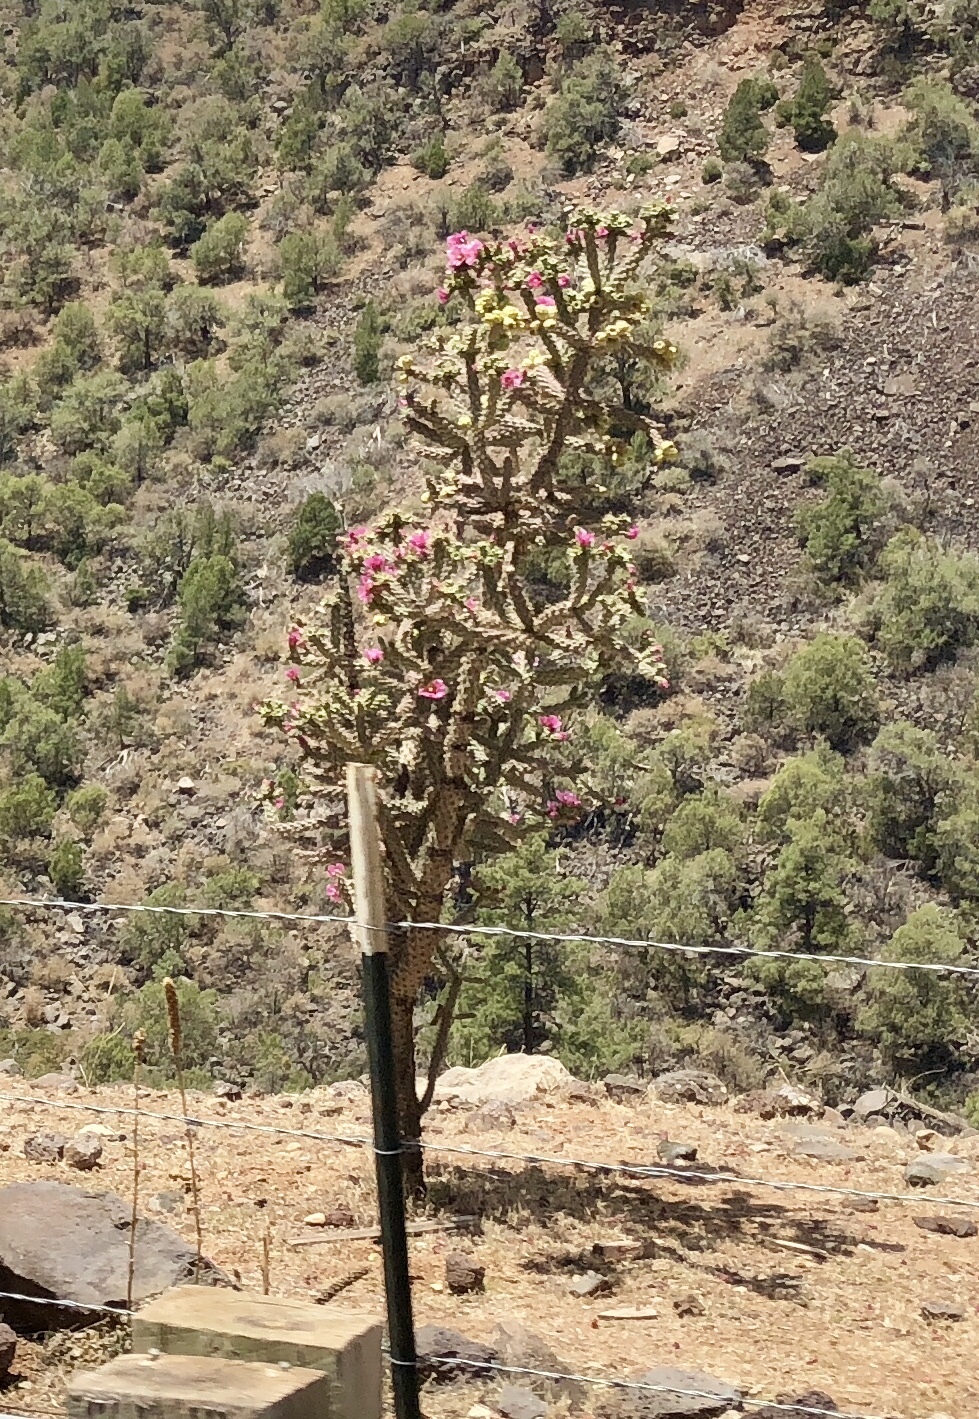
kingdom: Plantae
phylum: Tracheophyta
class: Magnoliopsida
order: Caryophyllales
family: Cactaceae
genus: Cylindropuntia
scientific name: Cylindropuntia imbricata
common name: Candelabrum cactus
